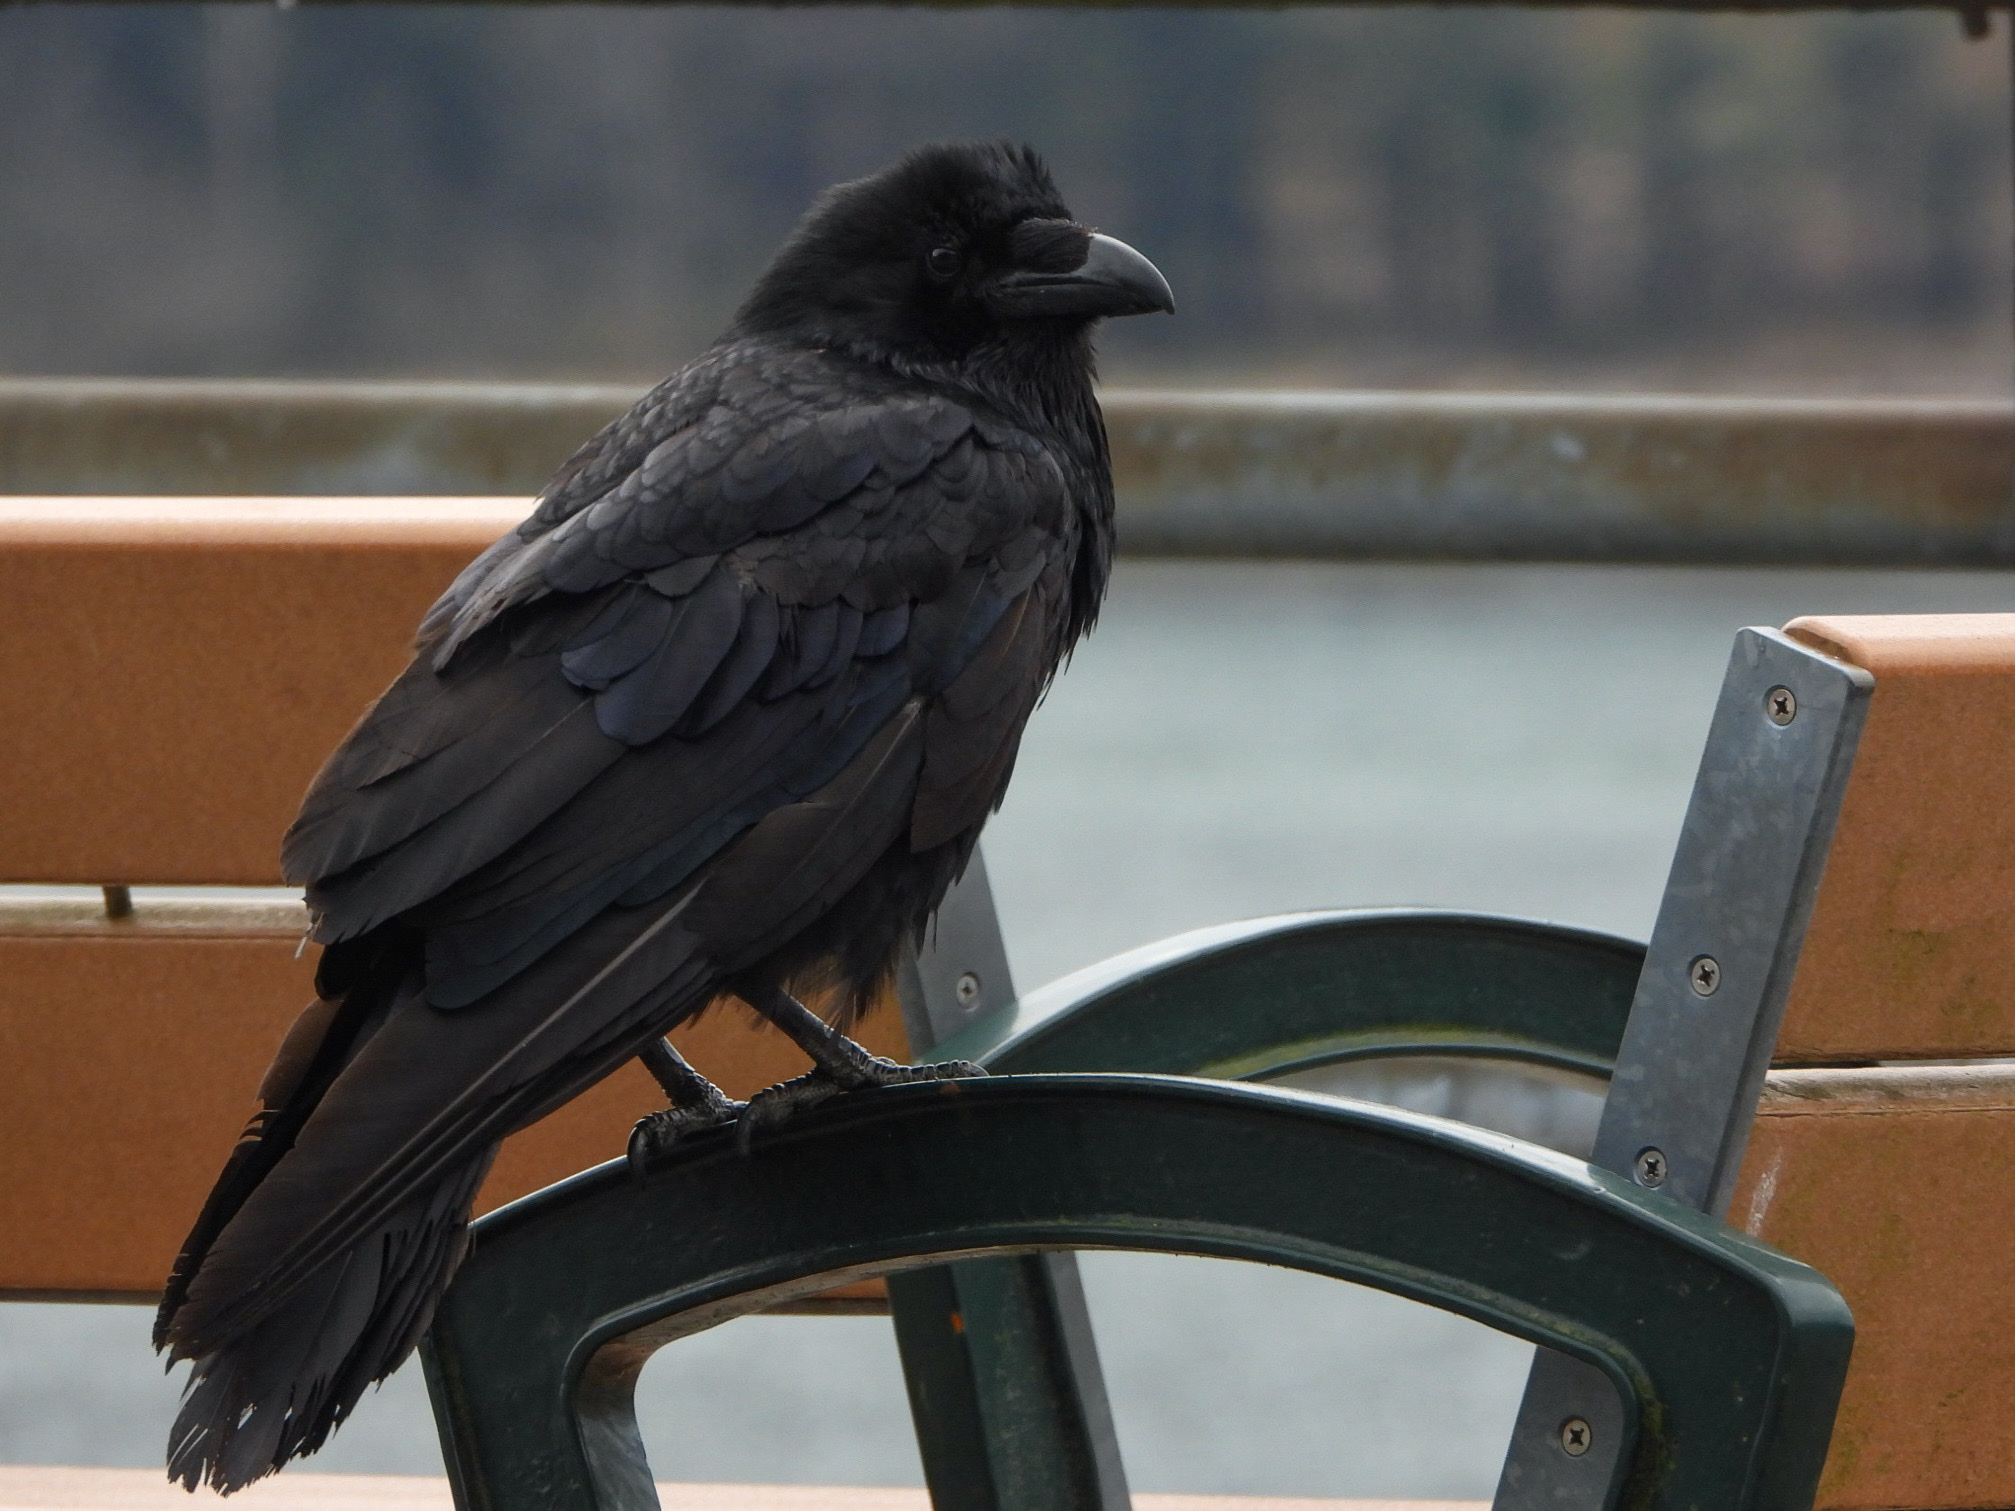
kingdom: Animalia
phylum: Chordata
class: Aves
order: Passeriformes
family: Corvidae
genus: Corvus
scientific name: Corvus corax
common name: Common raven
